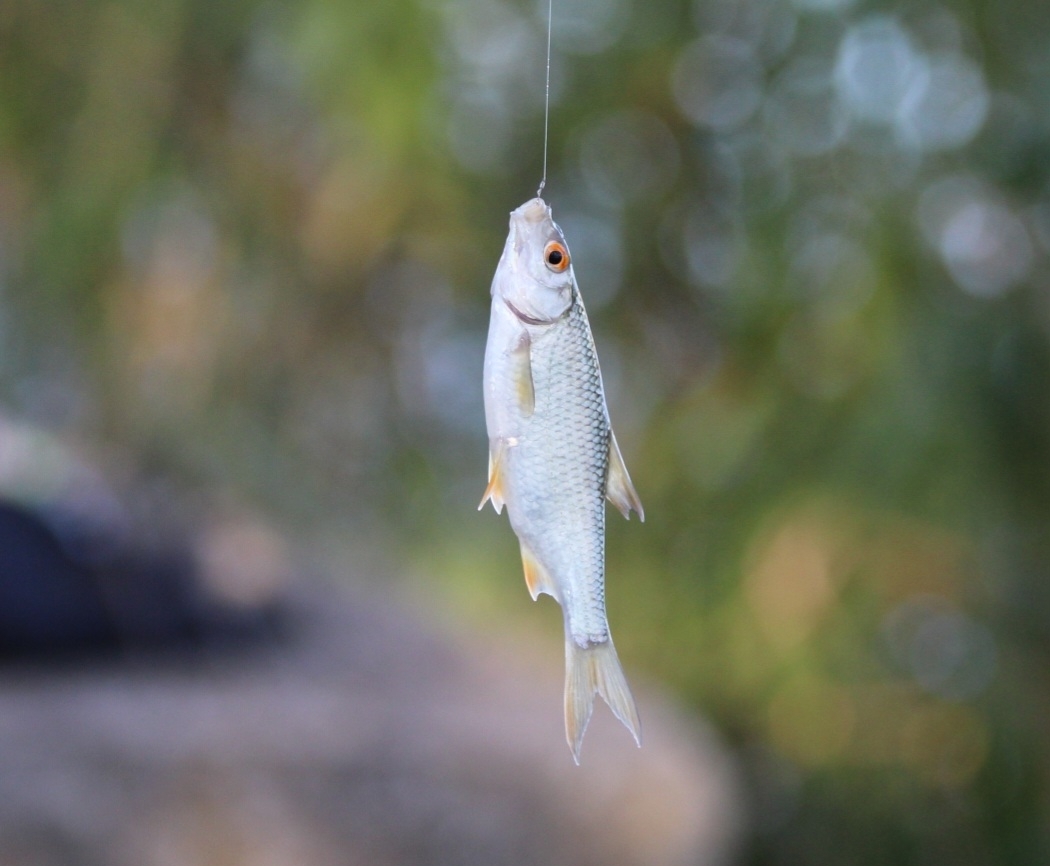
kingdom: Animalia
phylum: Chordata
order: Cypriniformes
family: Cyprinidae
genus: Rutilus
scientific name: Rutilus rutilus
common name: Roach
